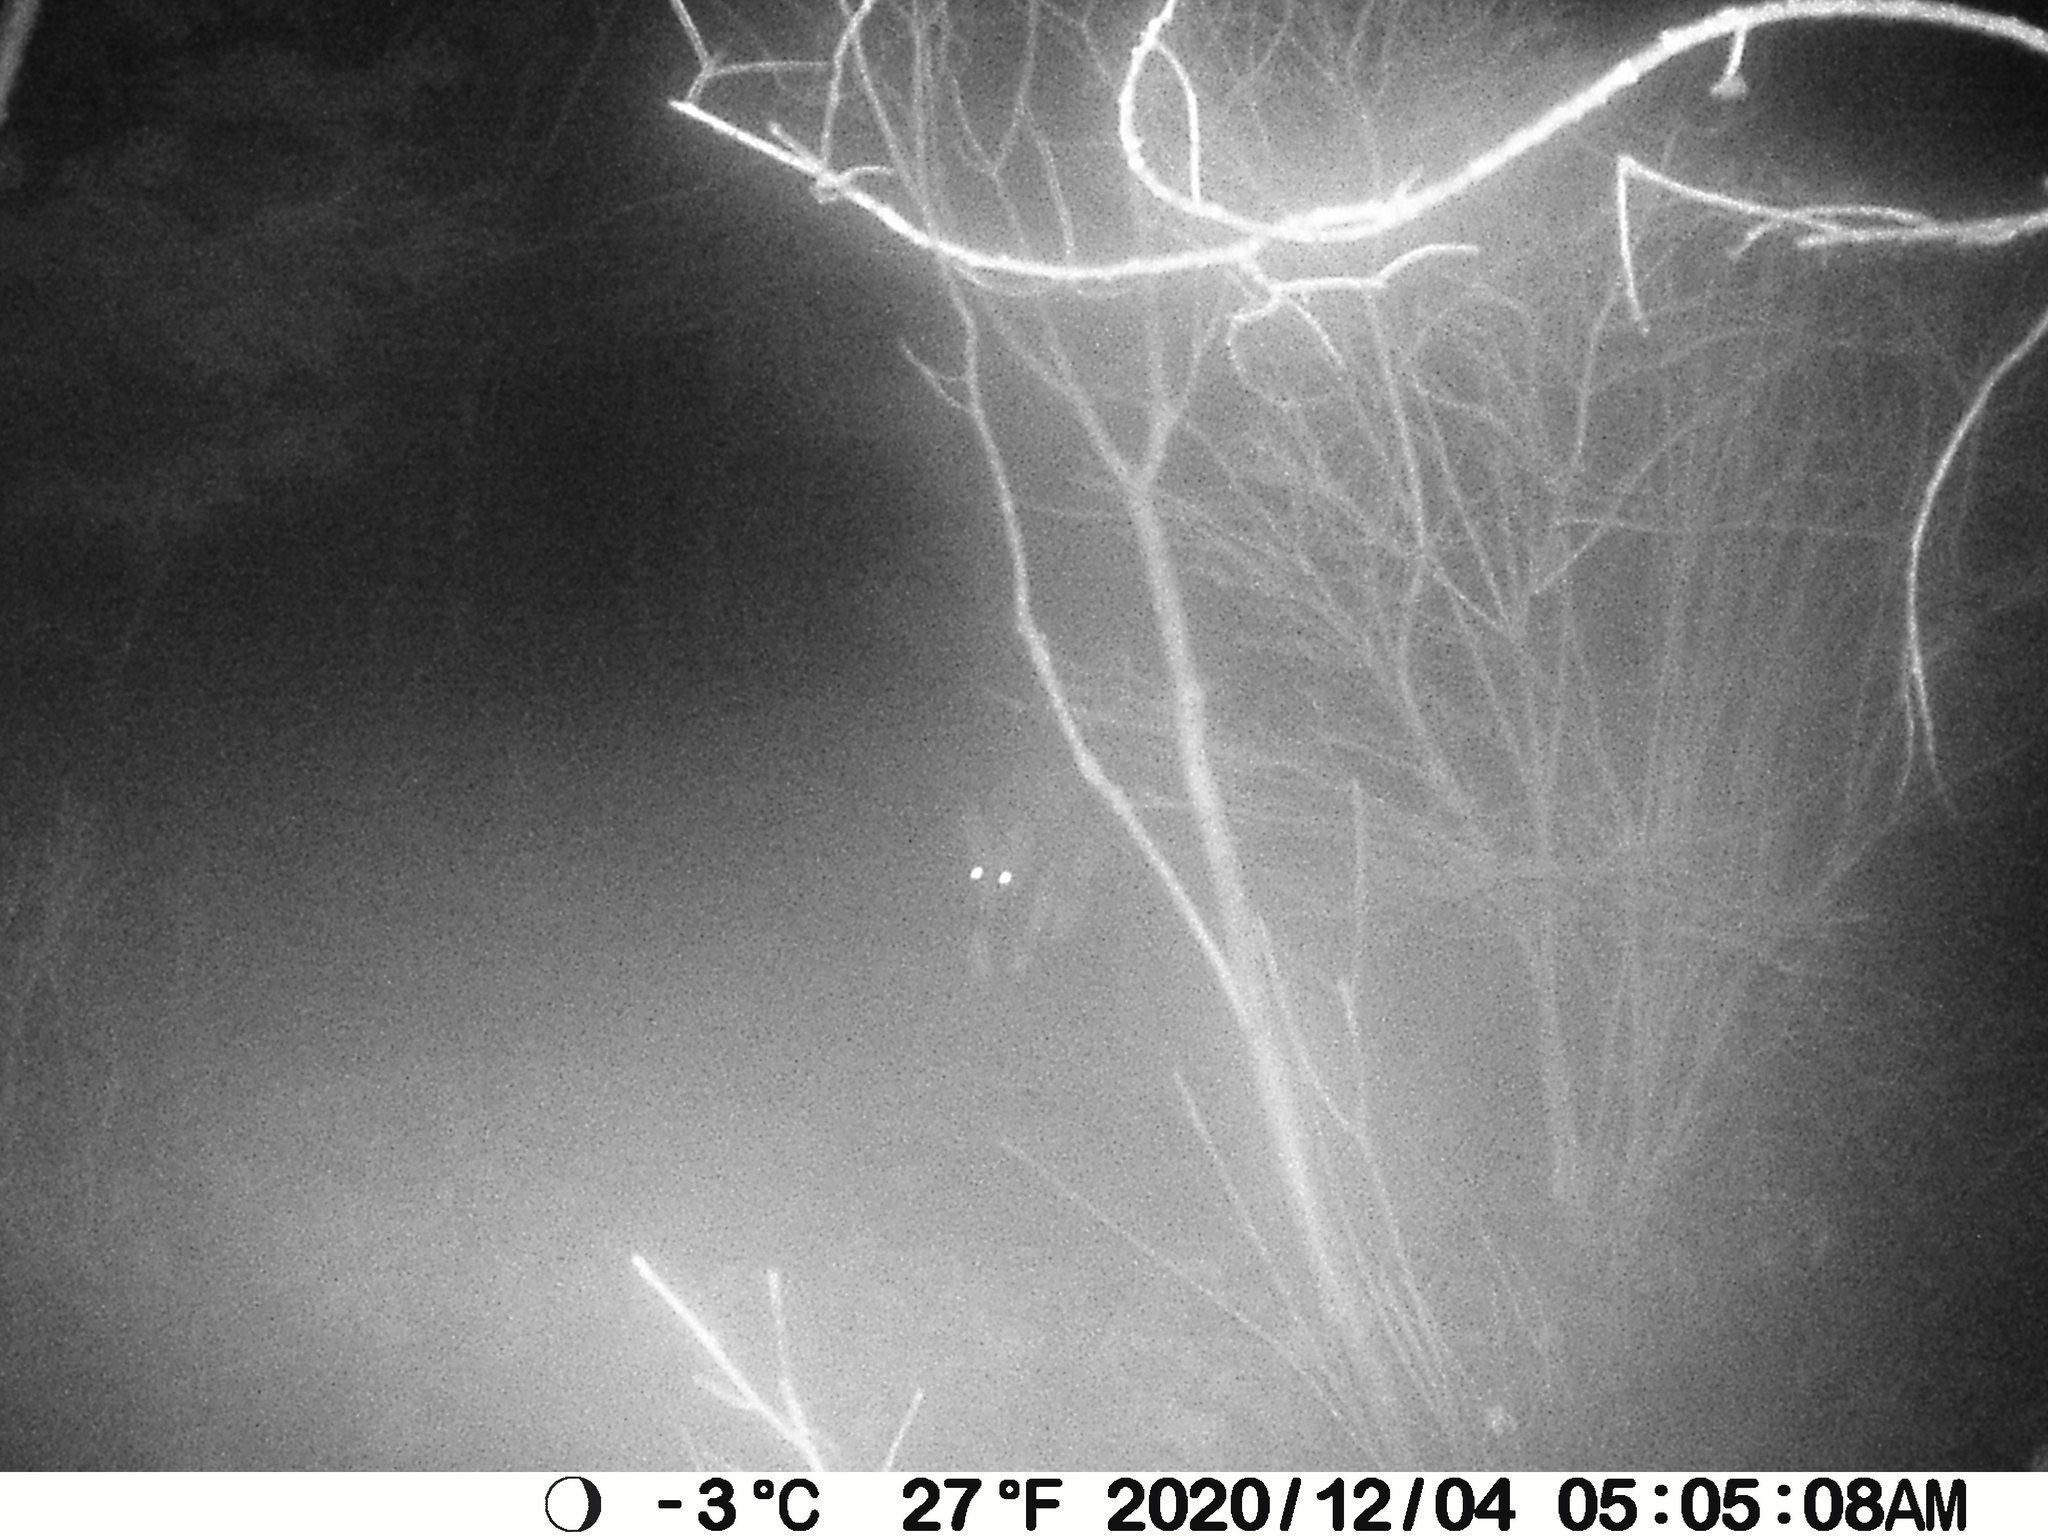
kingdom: Animalia
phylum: Chordata
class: Mammalia
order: Carnivora
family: Canidae
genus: Canis
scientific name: Canis latrans
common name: Coyote
